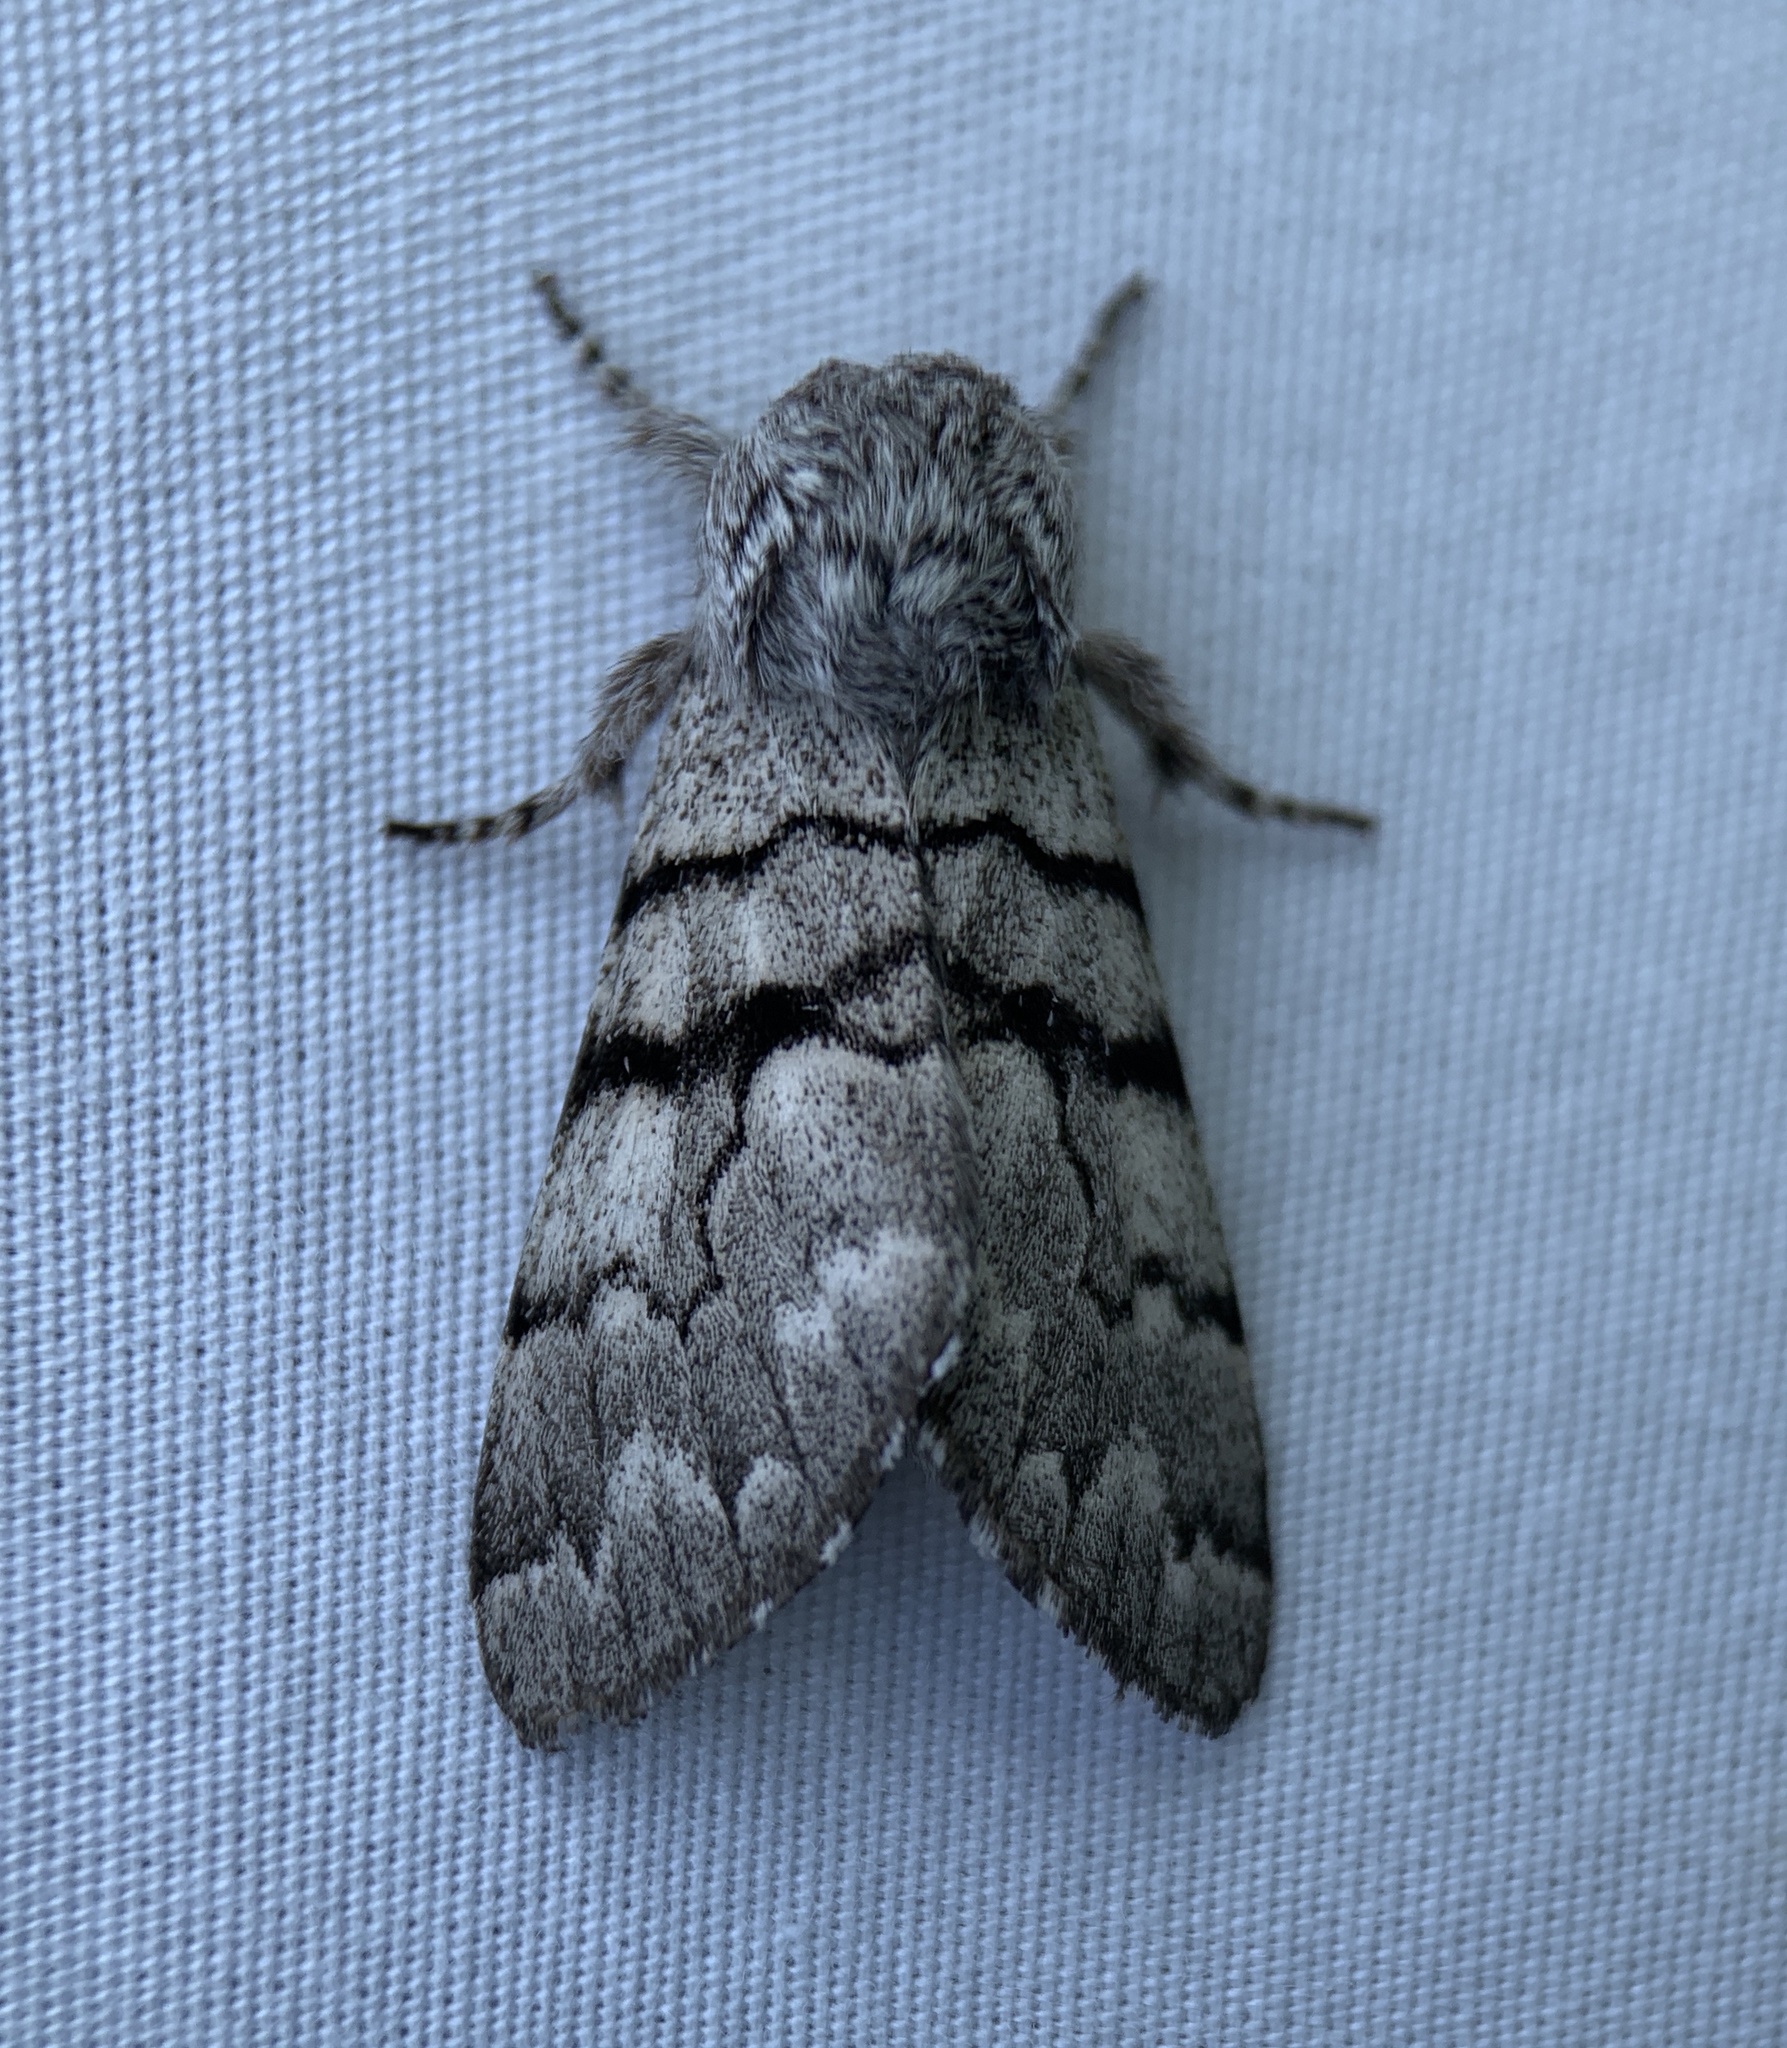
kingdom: Animalia
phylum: Arthropoda
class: Insecta
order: Lepidoptera
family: Noctuidae
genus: Panthea
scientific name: Panthea furcilla
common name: Eastern panthea moth
